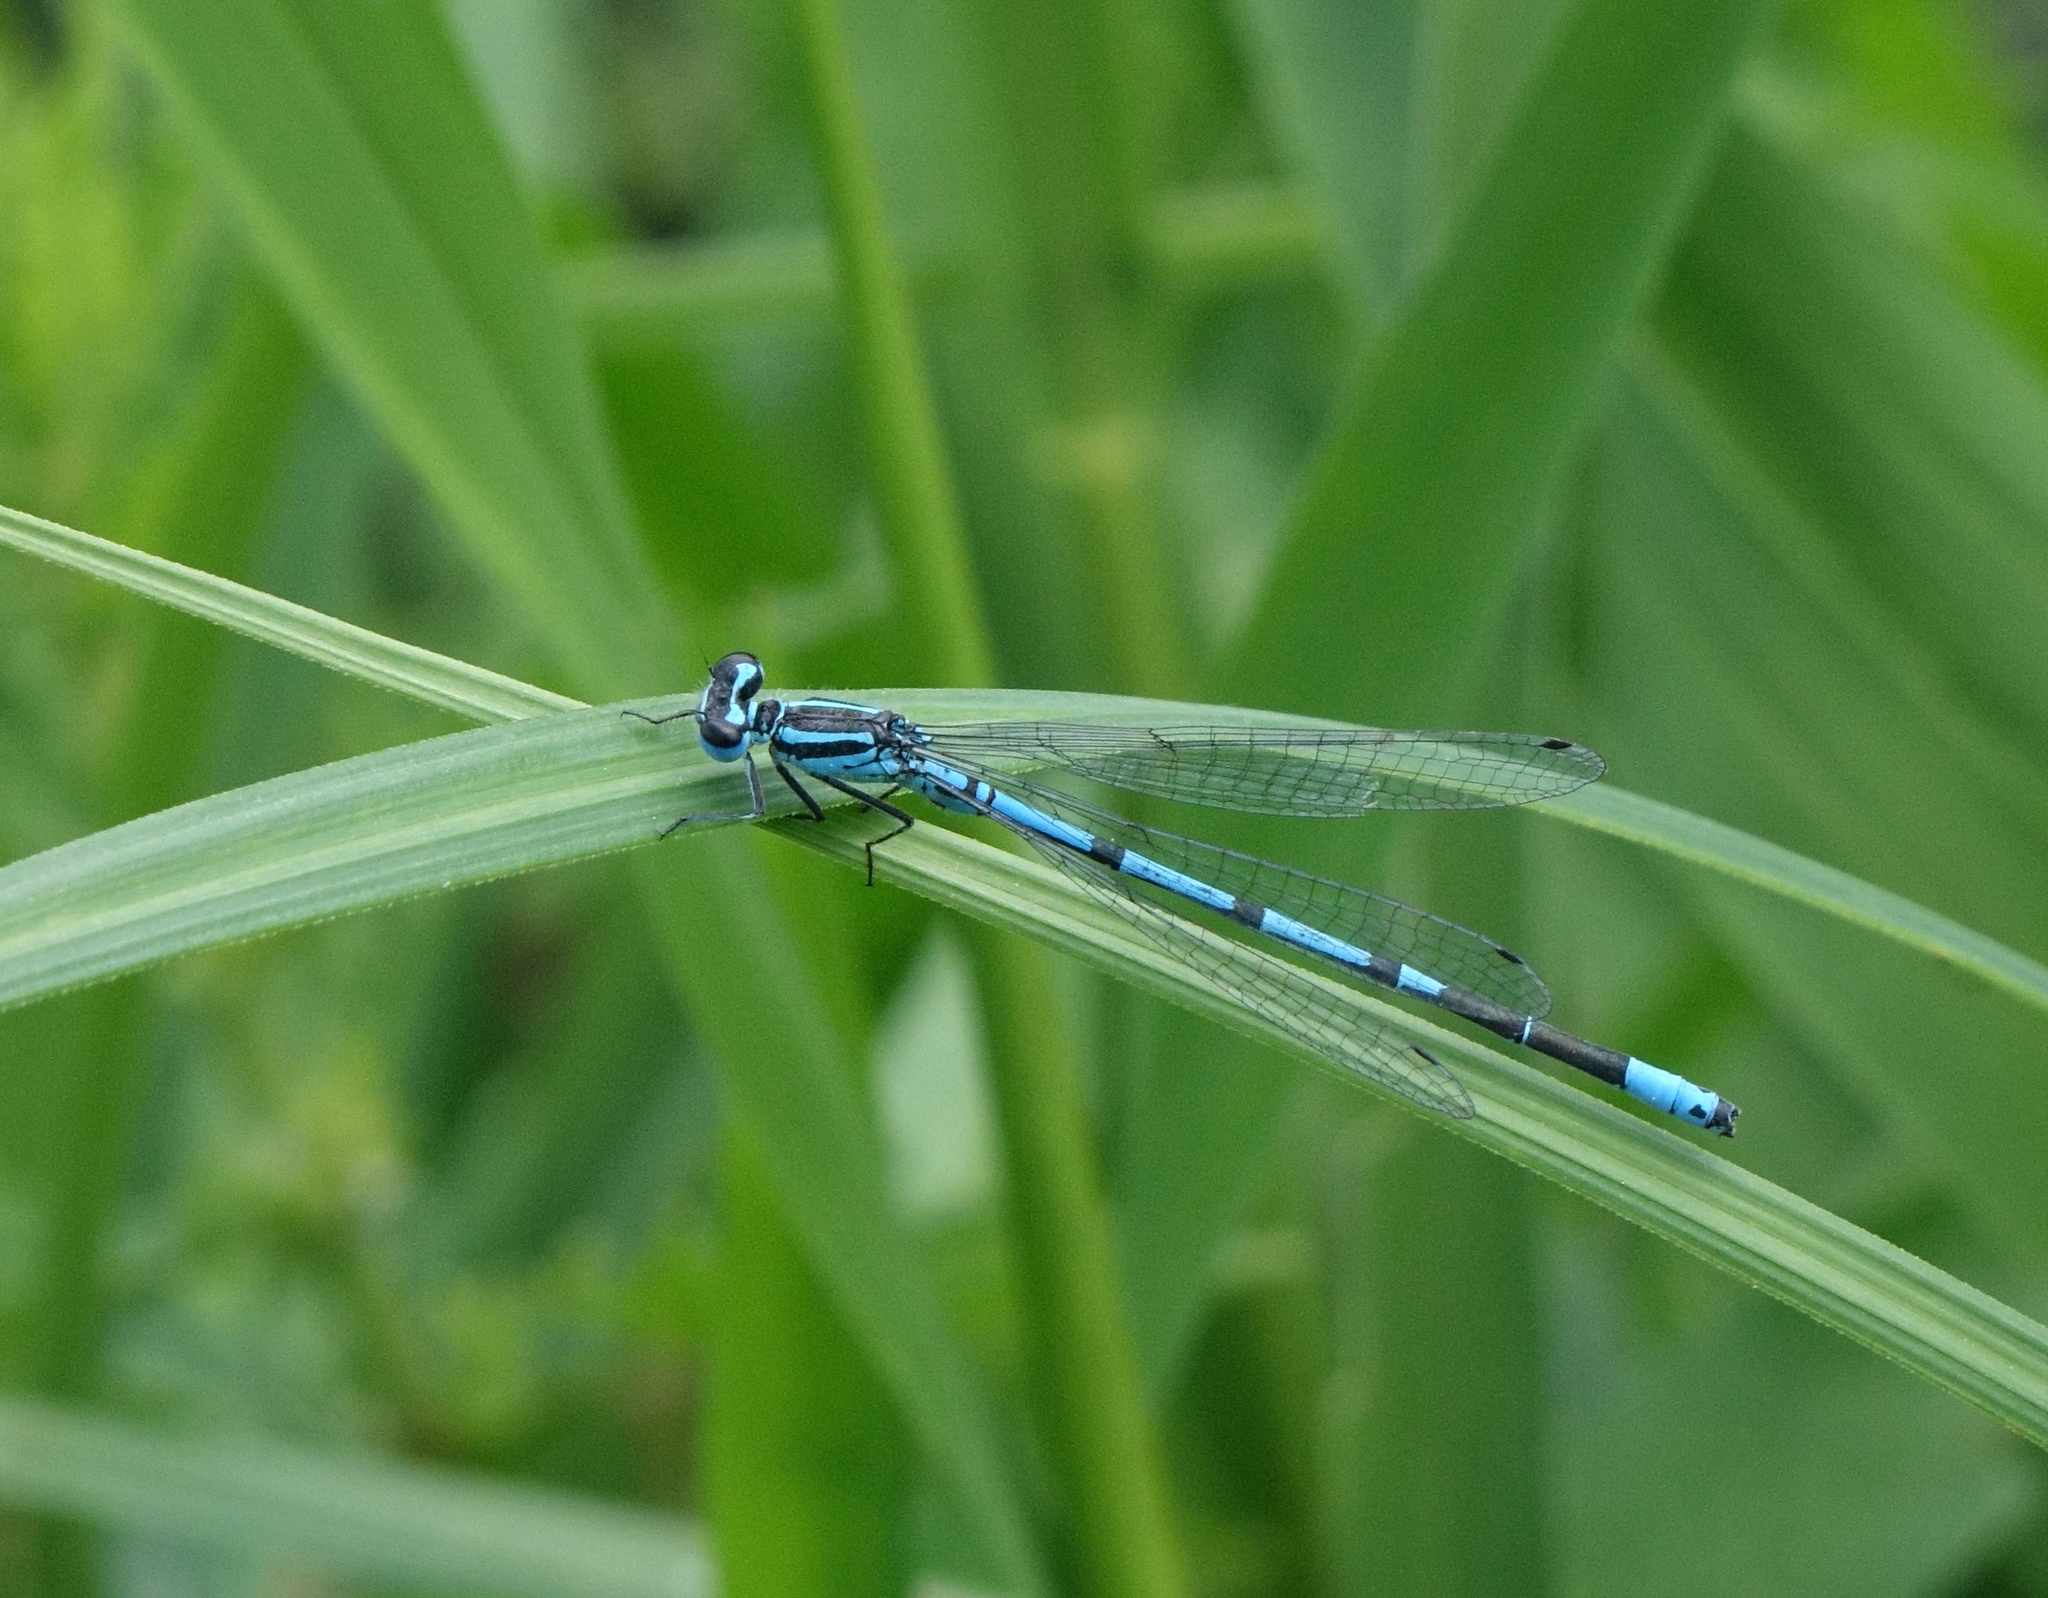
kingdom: Animalia
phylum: Arthropoda
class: Insecta
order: Odonata
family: Coenagrionidae
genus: Coenagrion
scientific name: Coenagrion puella
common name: Azure damselfly
